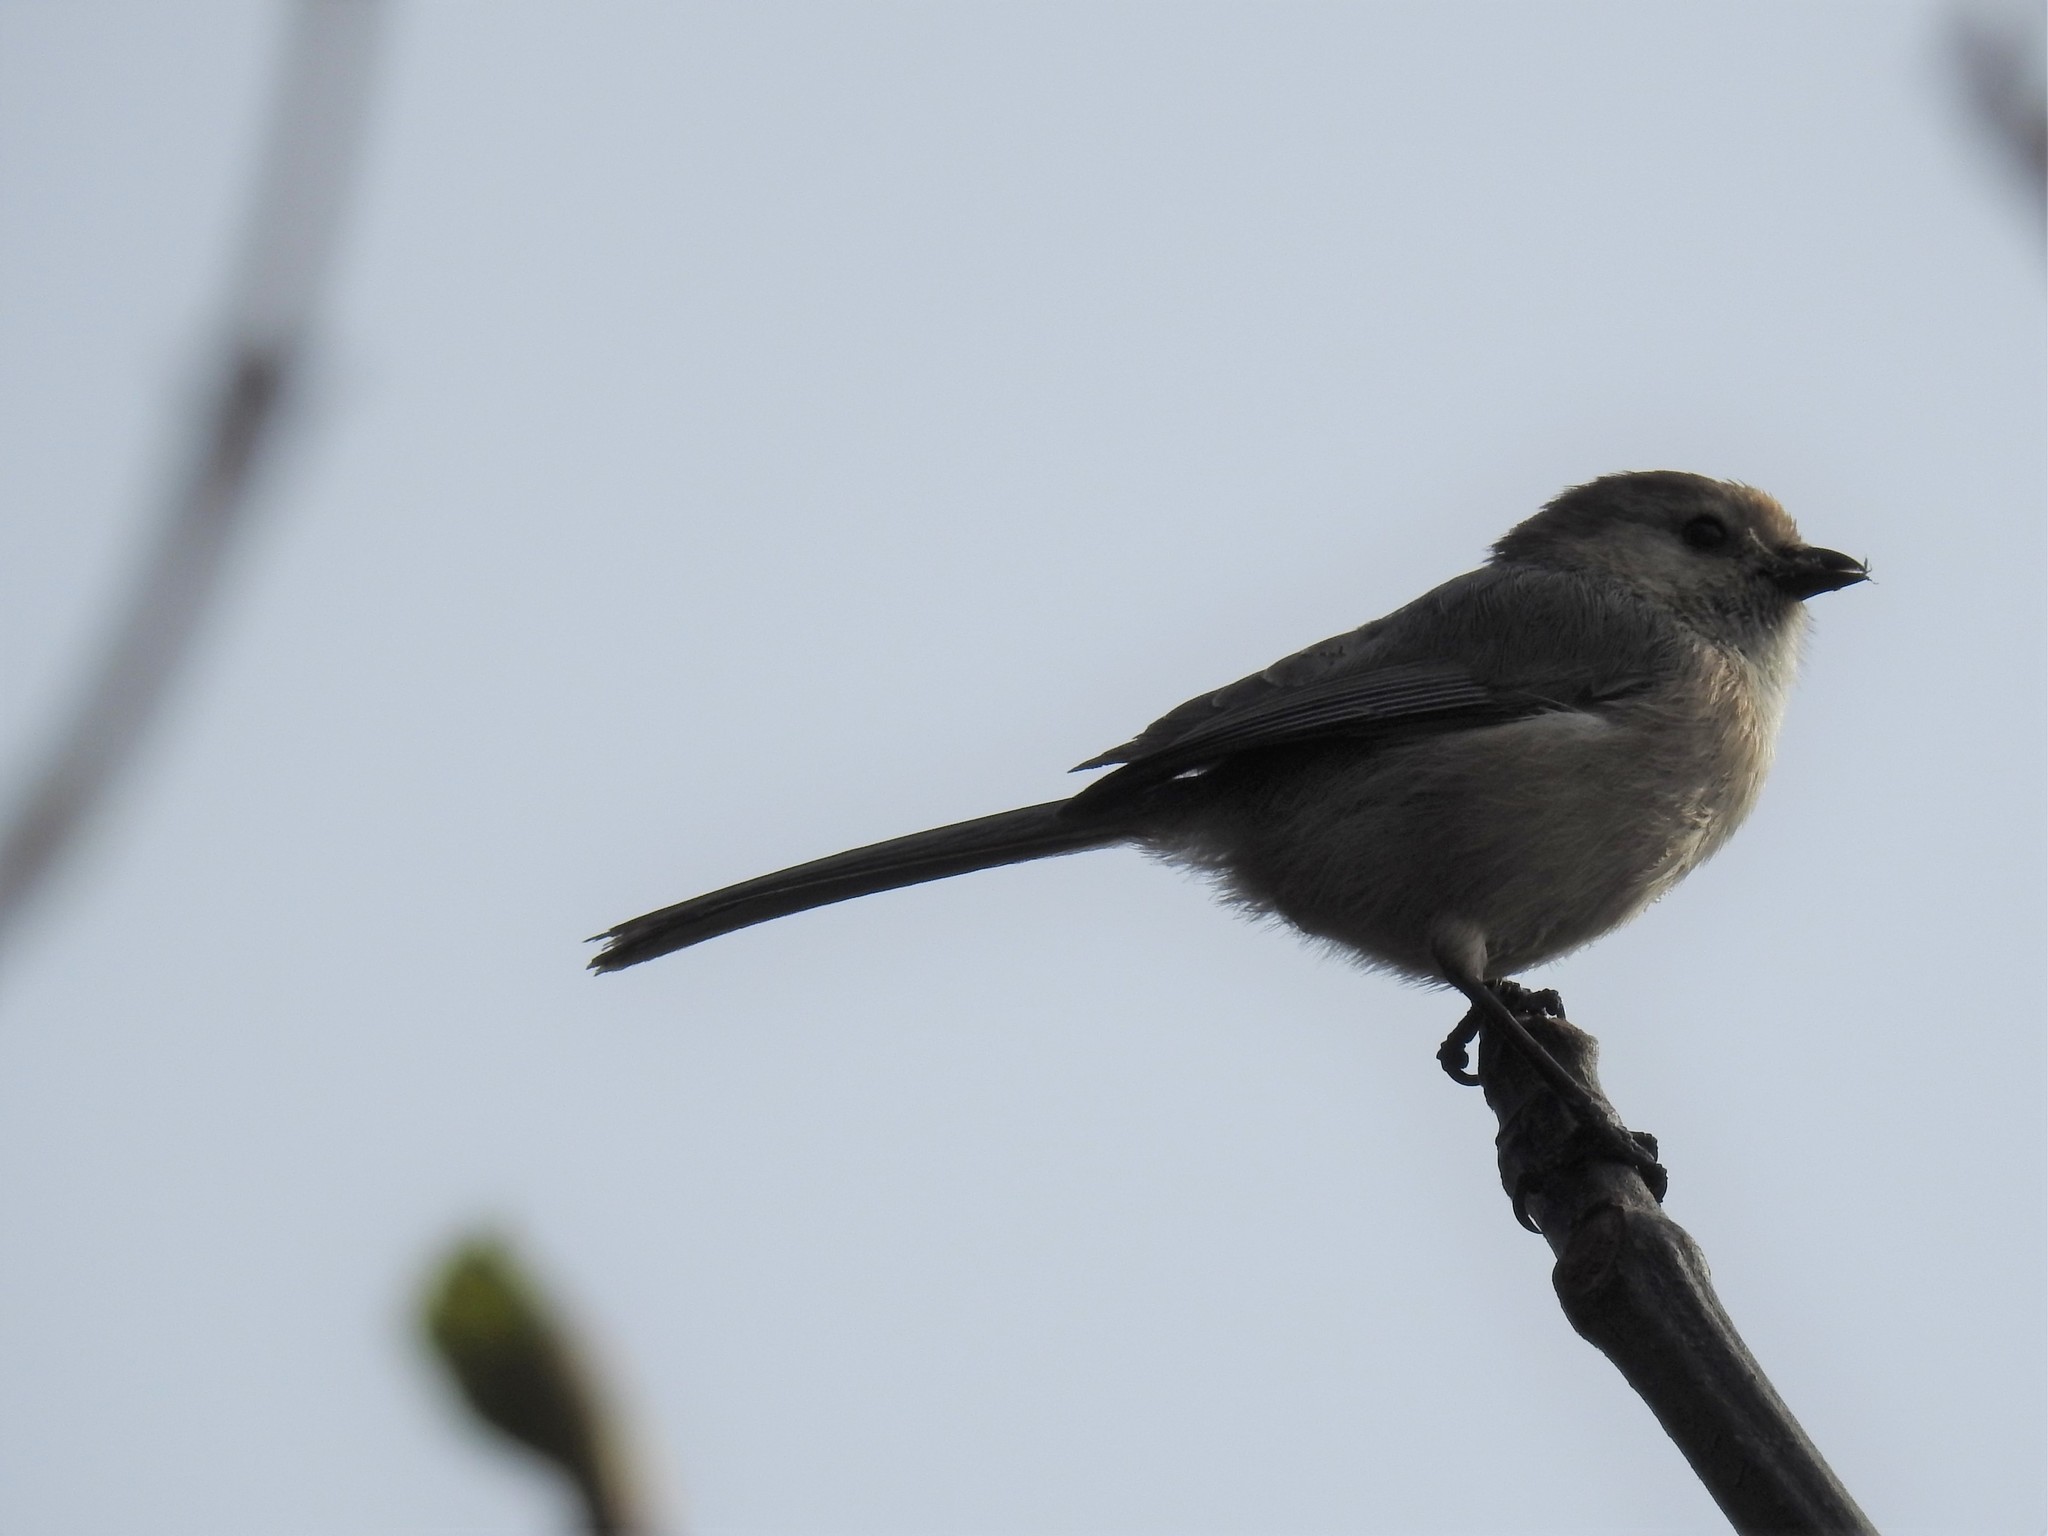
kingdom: Animalia
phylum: Chordata
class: Aves
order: Passeriformes
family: Aegithalidae
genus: Psaltriparus
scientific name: Psaltriparus minimus
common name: American bushtit
